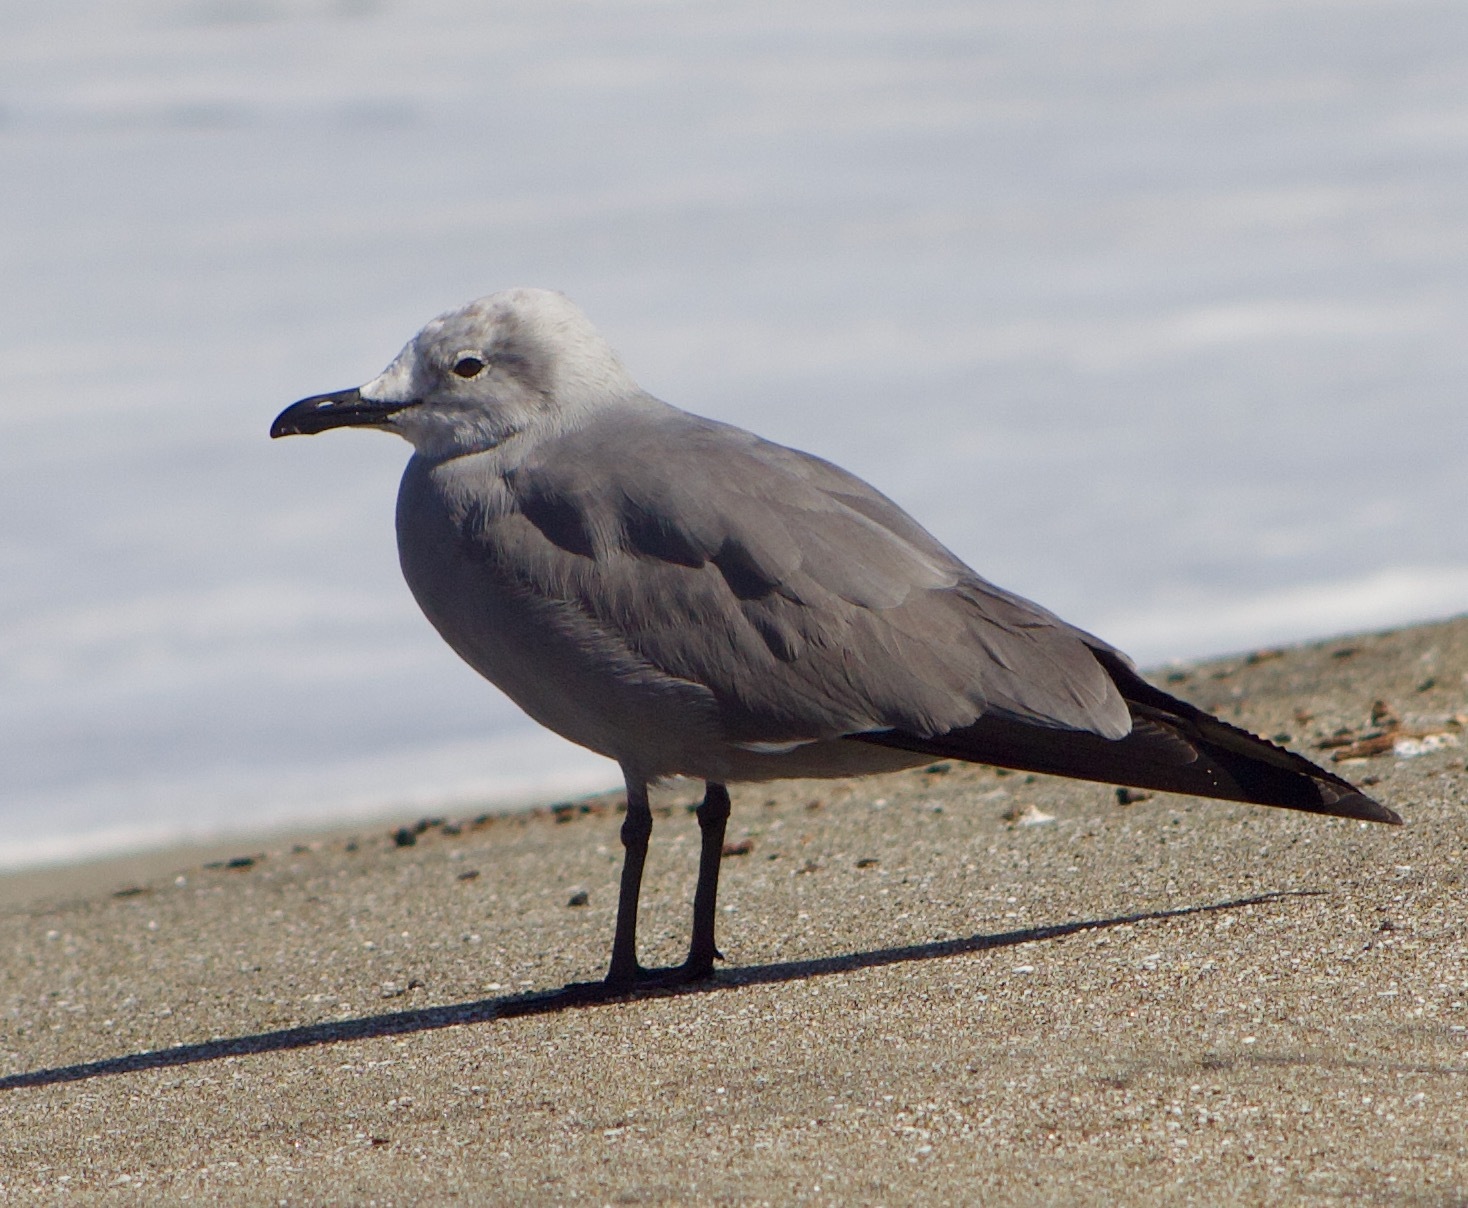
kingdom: Animalia
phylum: Chordata
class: Aves
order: Charadriiformes
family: Laridae
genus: Leucophaeus
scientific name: Leucophaeus modestus
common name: Gray gull
